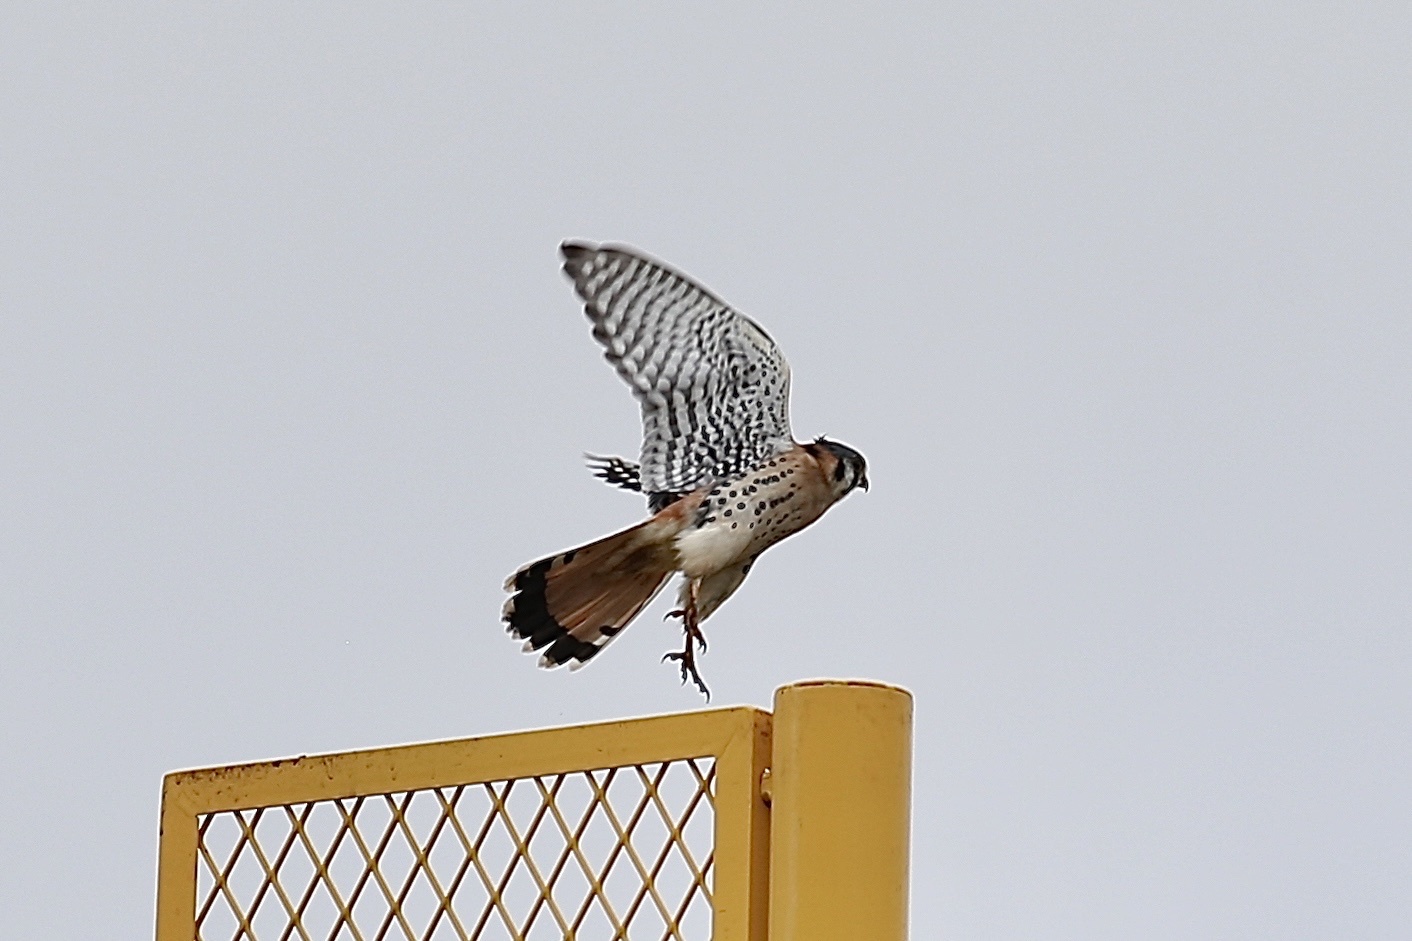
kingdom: Animalia
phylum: Chordata
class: Aves
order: Falconiformes
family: Falconidae
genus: Falco
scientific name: Falco sparverius
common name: American kestrel
